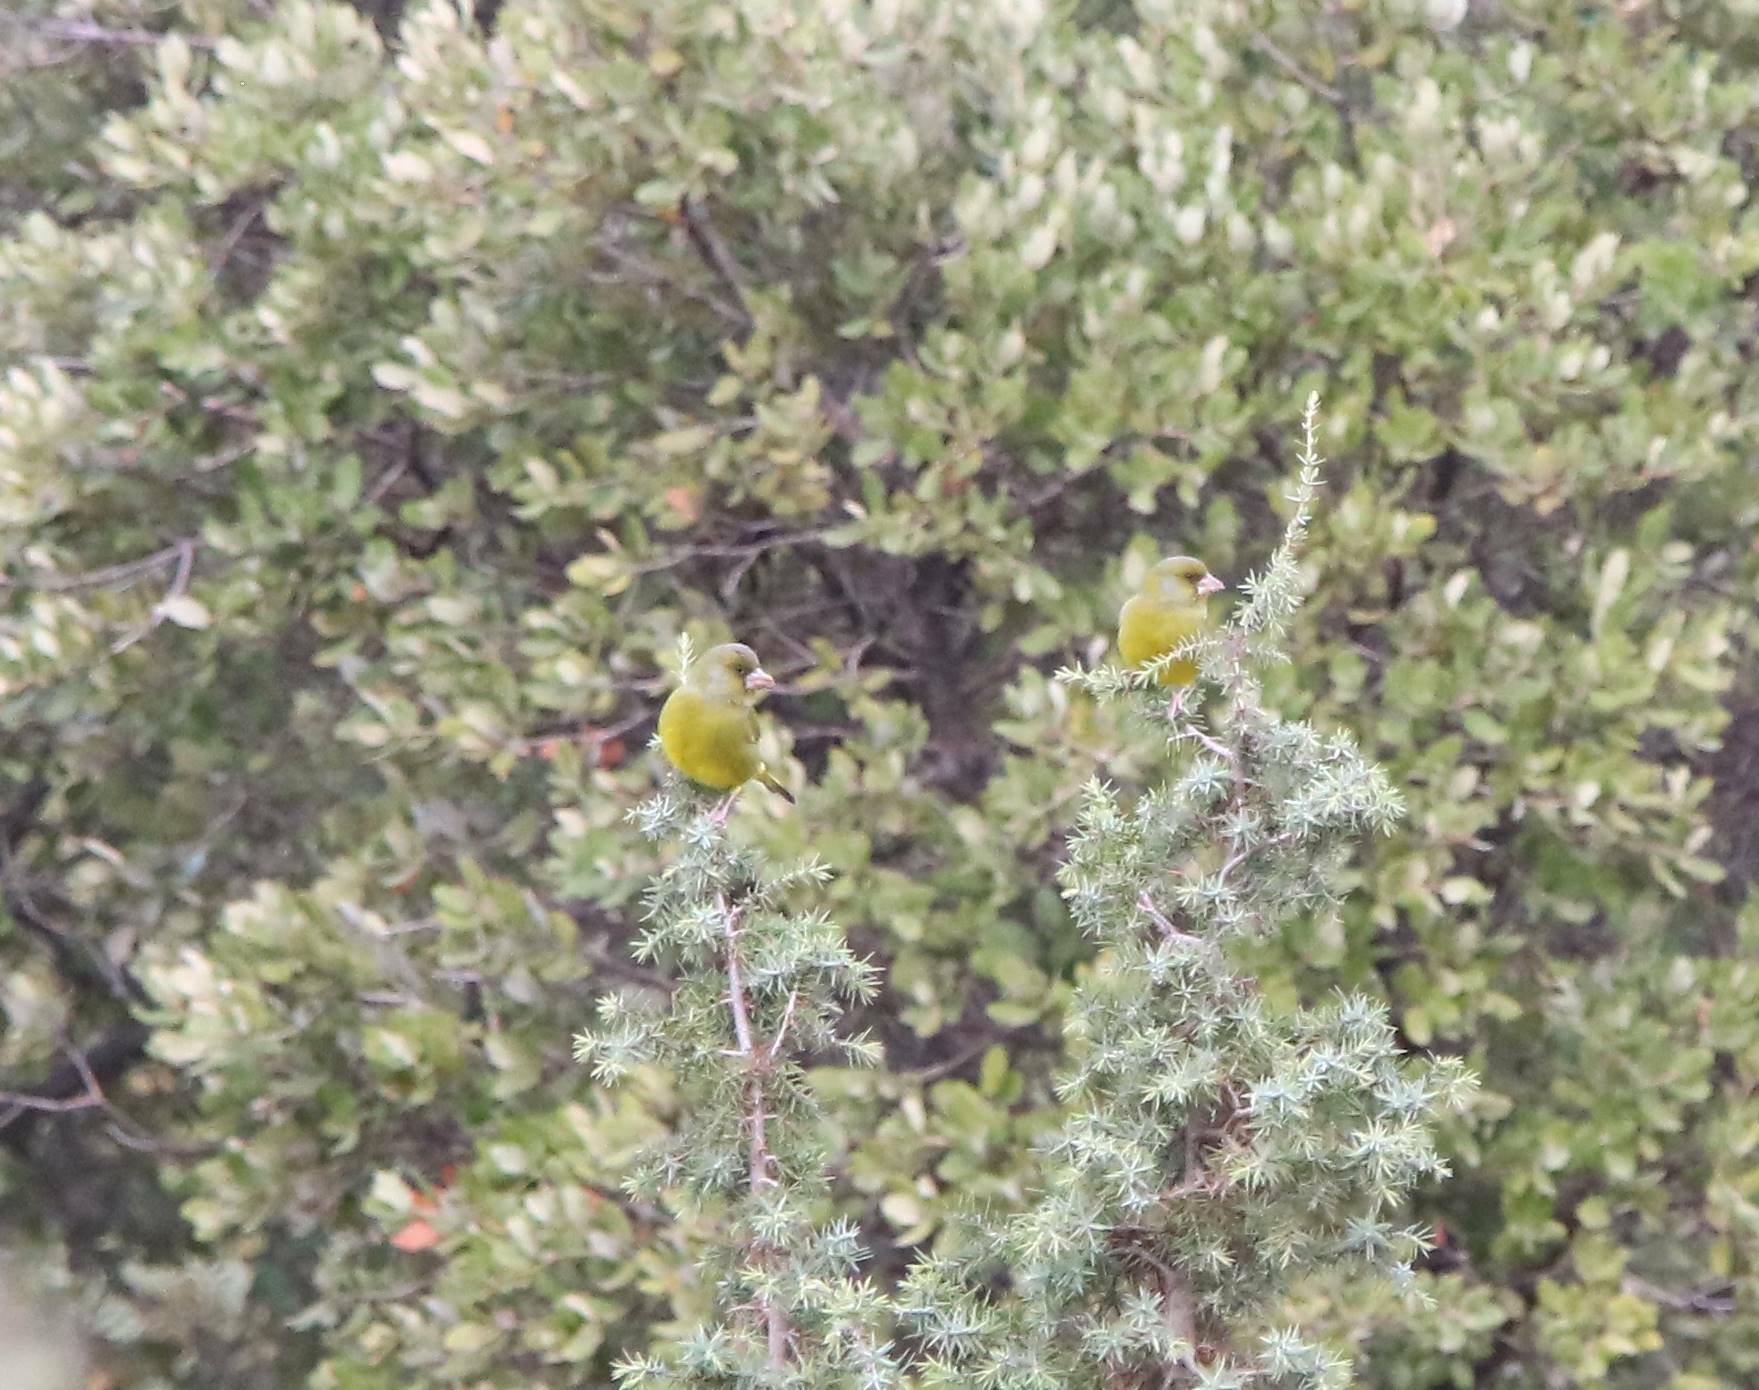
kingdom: Plantae
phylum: Tracheophyta
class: Liliopsida
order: Poales
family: Poaceae
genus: Chloris
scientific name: Chloris chloris
